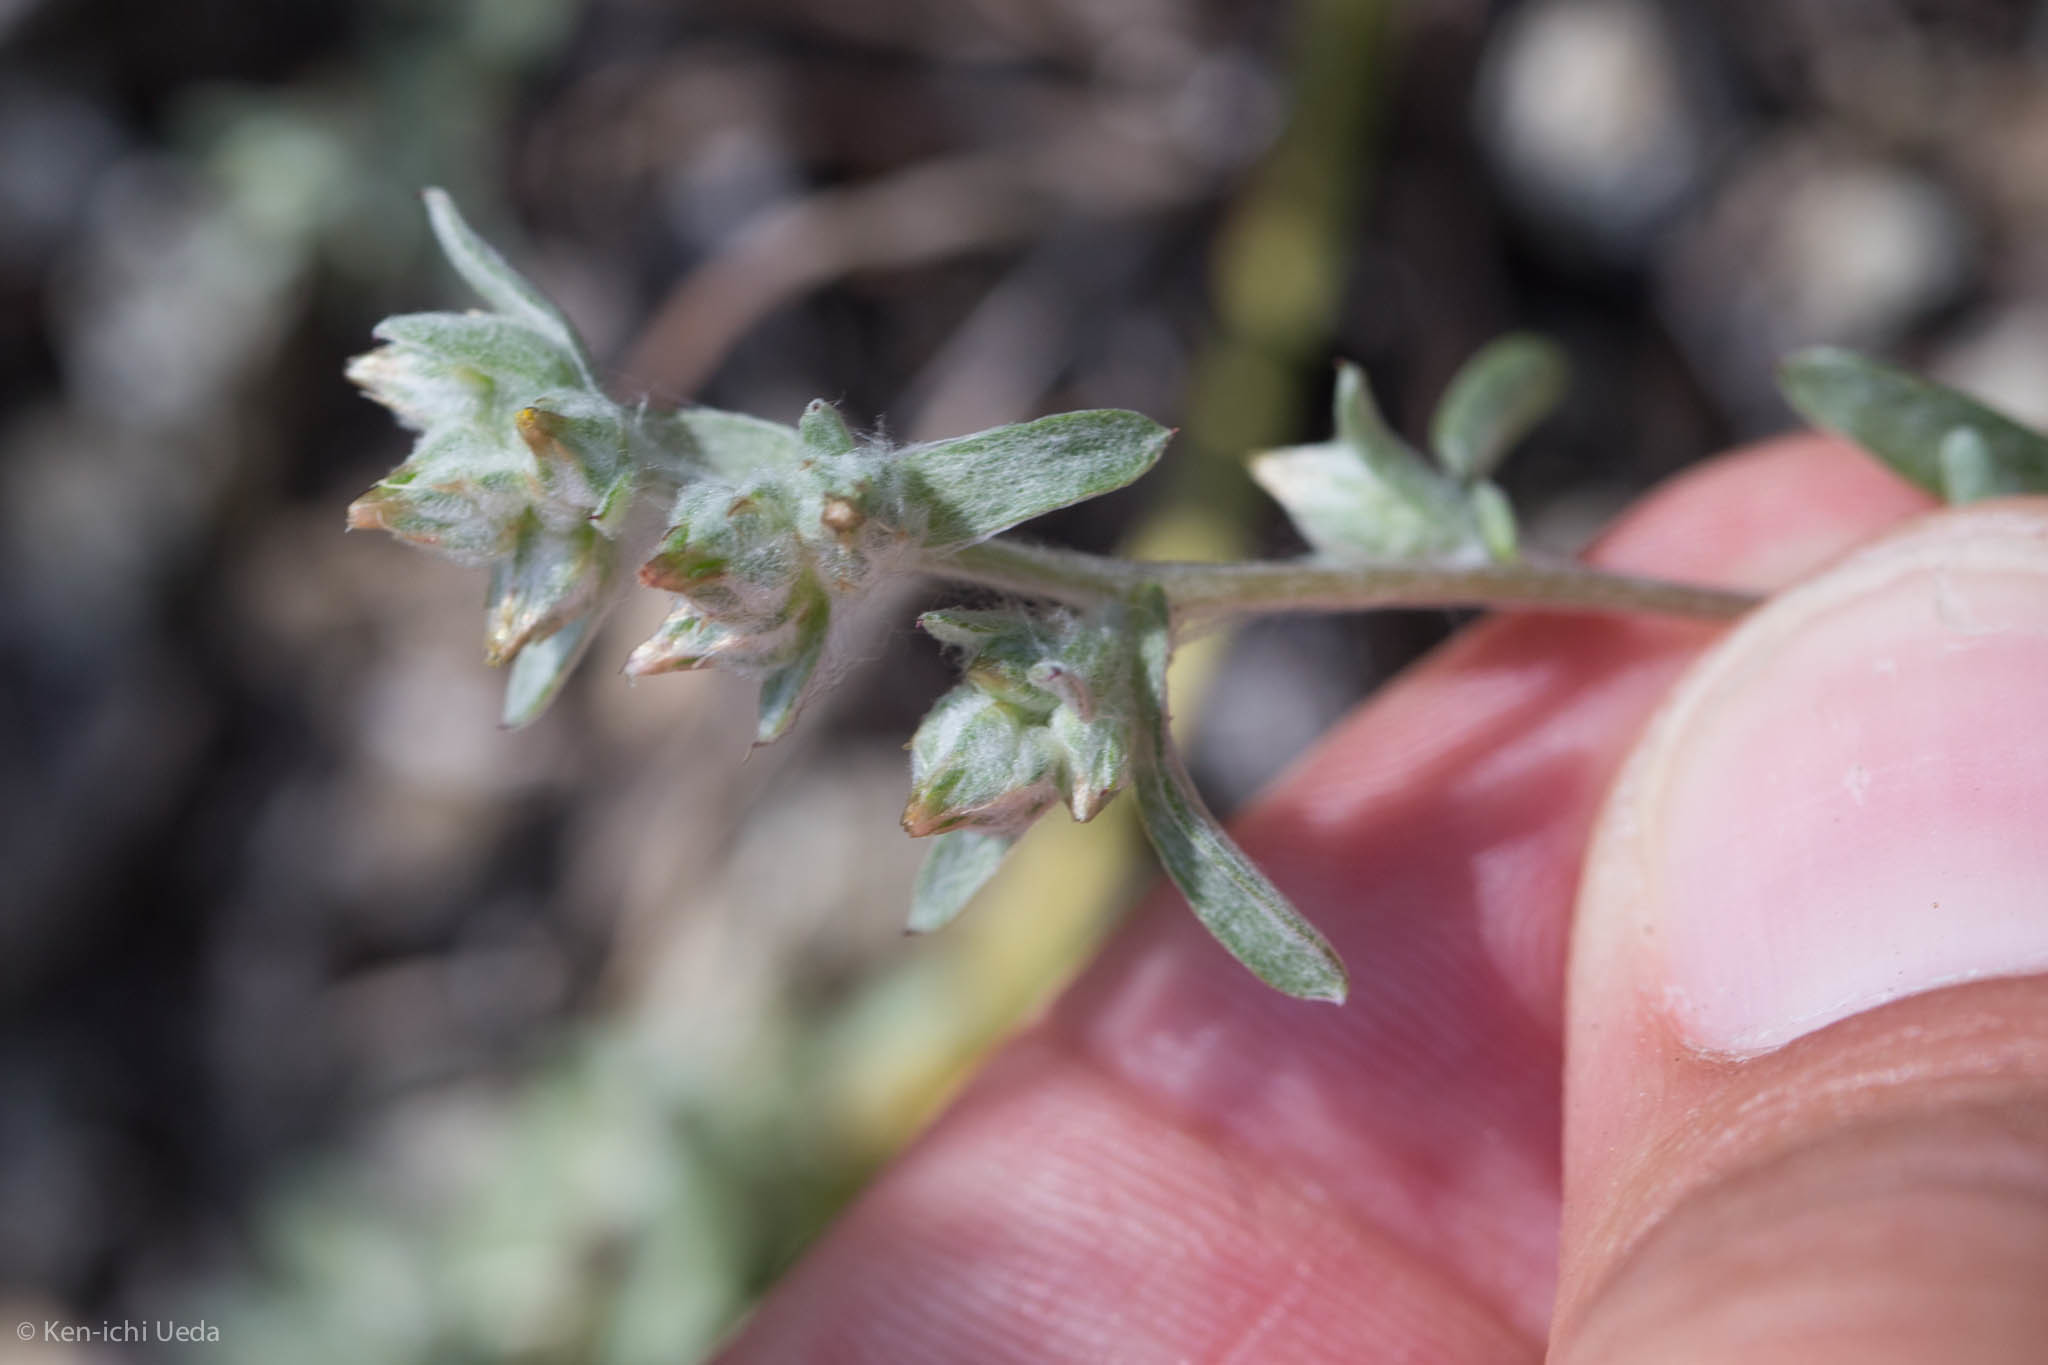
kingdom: Plantae
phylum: Tracheophyta
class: Magnoliopsida
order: Asterales
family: Asteraceae
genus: Logfia
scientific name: Logfia californica
